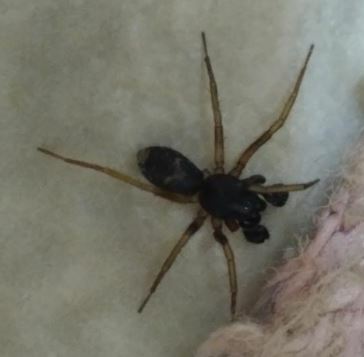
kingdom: Animalia
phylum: Arthropoda
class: Arachnida
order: Araneae
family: Corinnidae
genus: Falconina
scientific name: Falconina gracilis
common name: Antmimic spider
